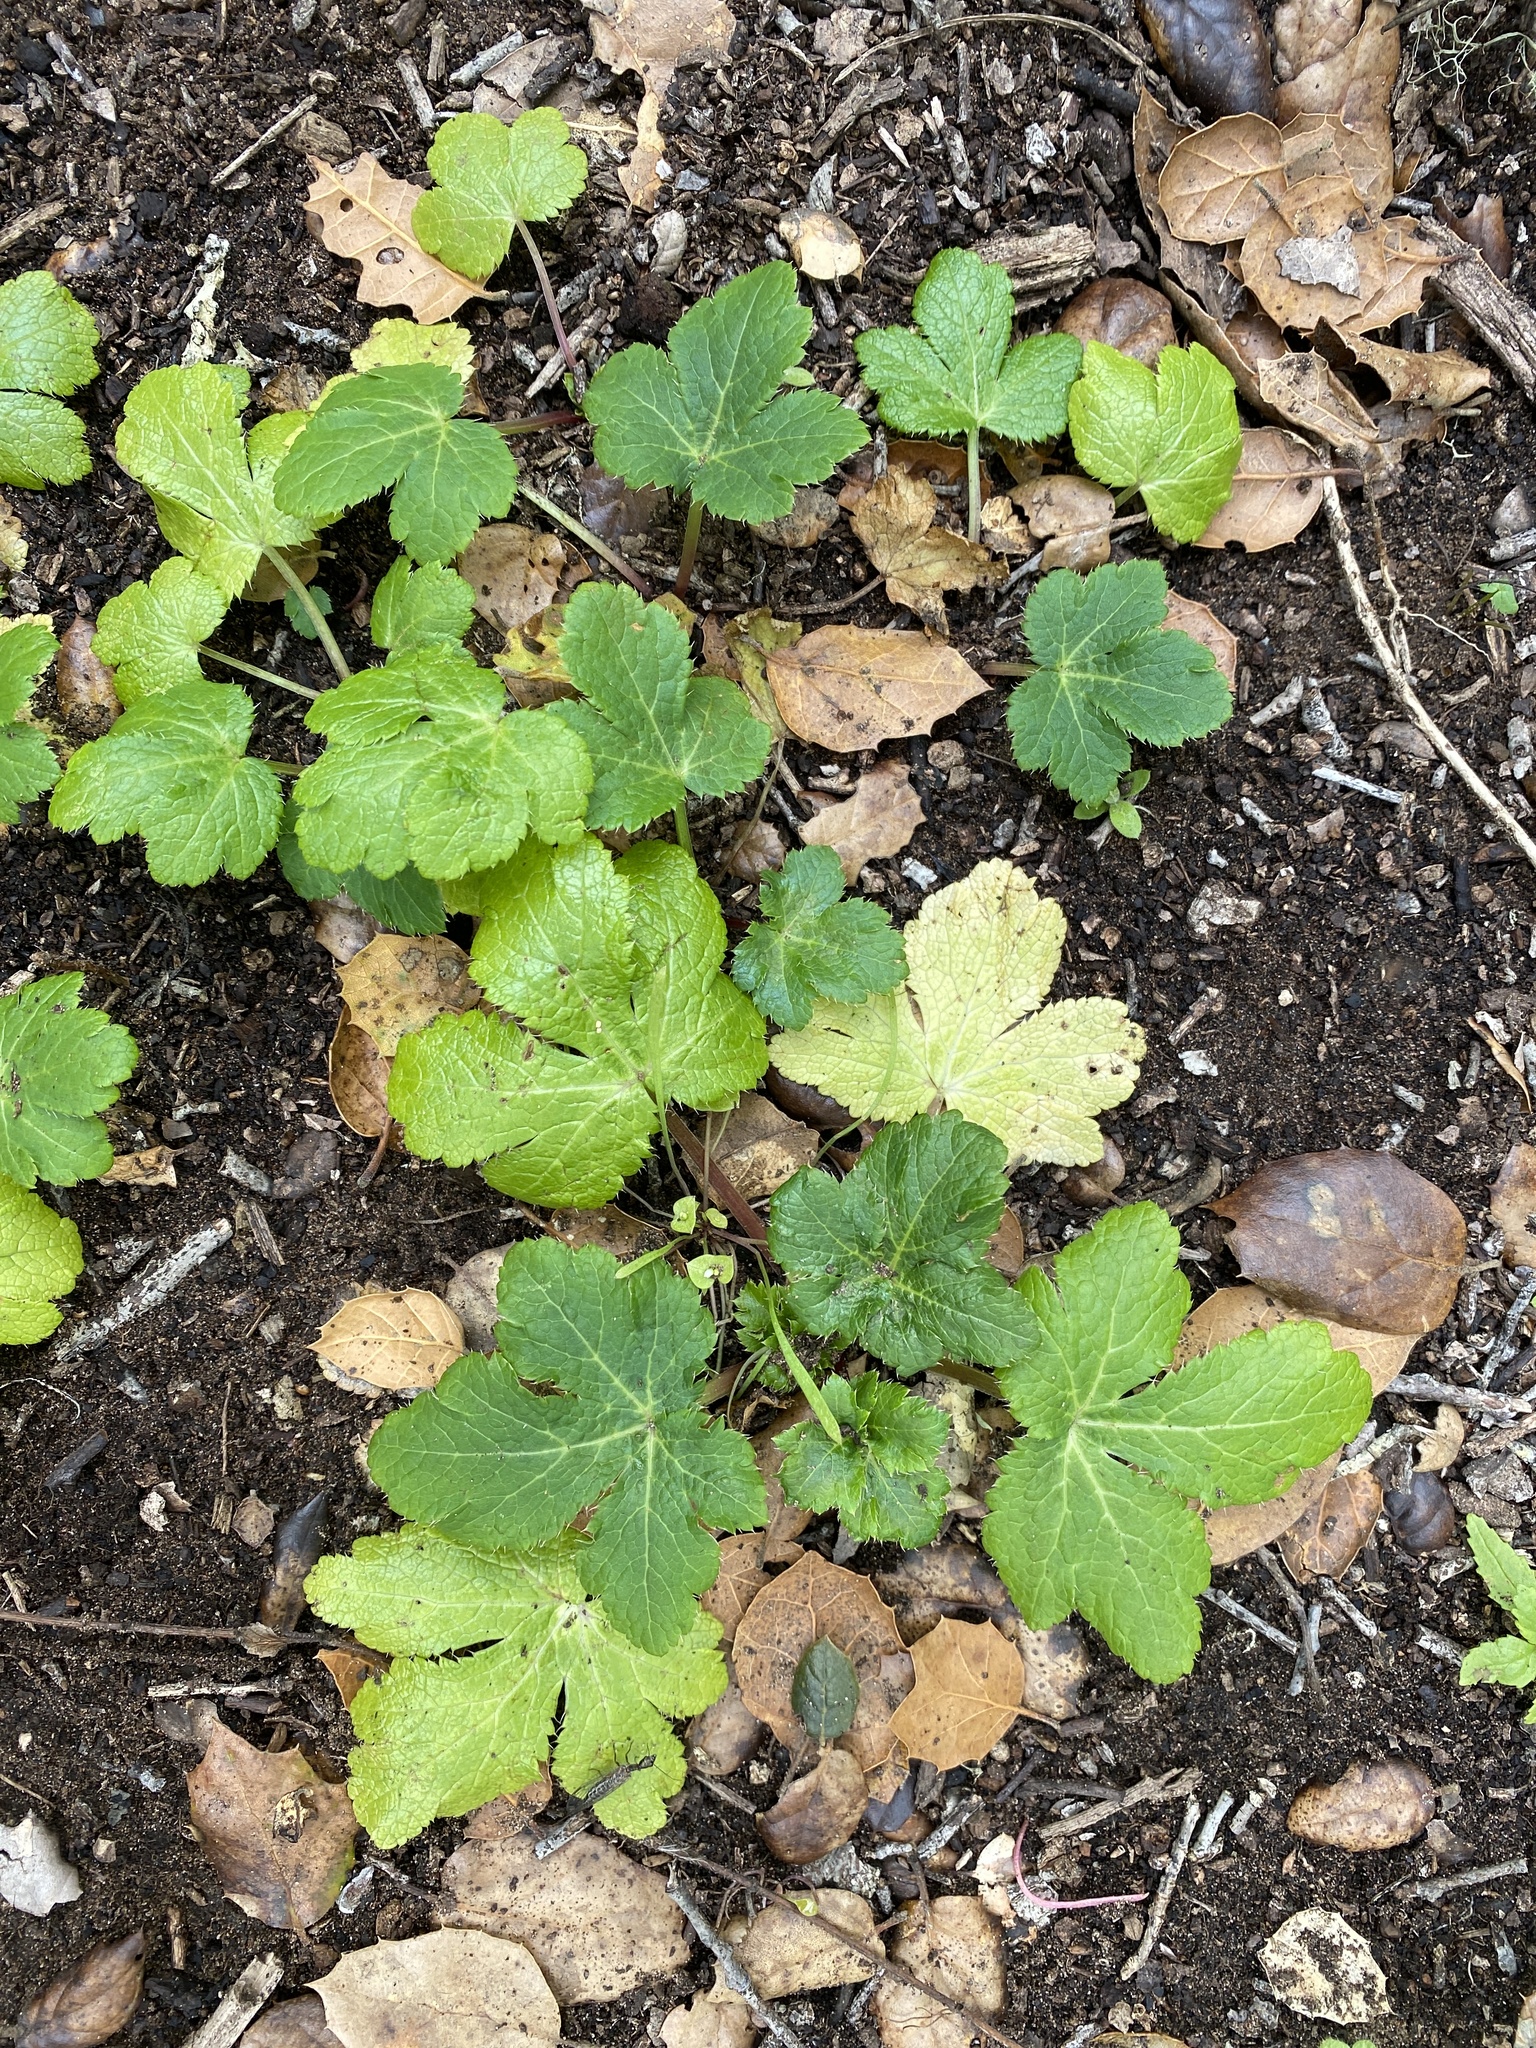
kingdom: Plantae
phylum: Tracheophyta
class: Magnoliopsida
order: Apiales
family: Apiaceae
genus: Sanicula
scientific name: Sanicula crassicaulis
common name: Western snakeroot
